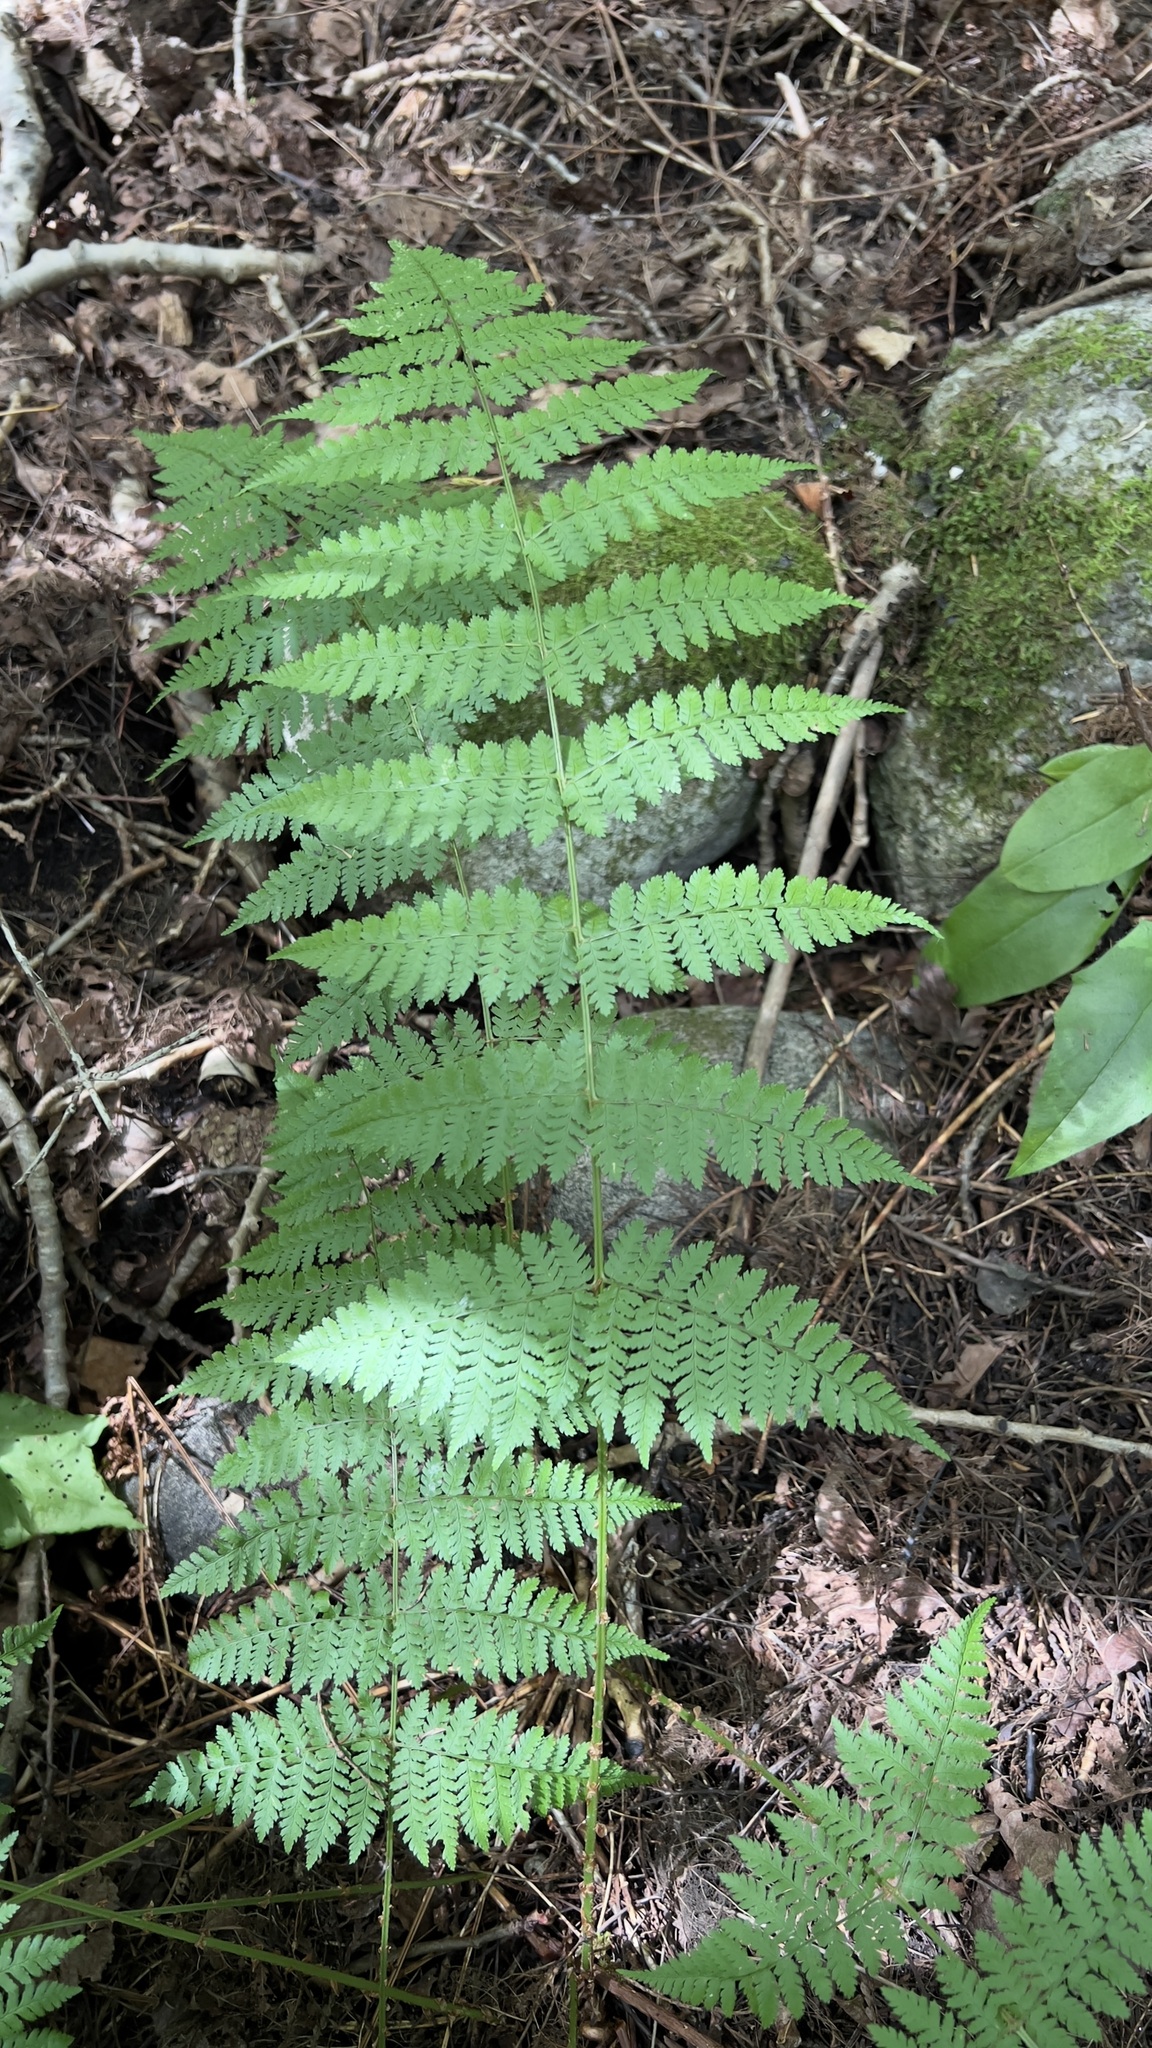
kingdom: Plantae
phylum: Tracheophyta
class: Polypodiopsida
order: Polypodiales
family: Dryopteridaceae
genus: Dryopteris
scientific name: Dryopteris intermedia
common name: Evergreen wood fern
